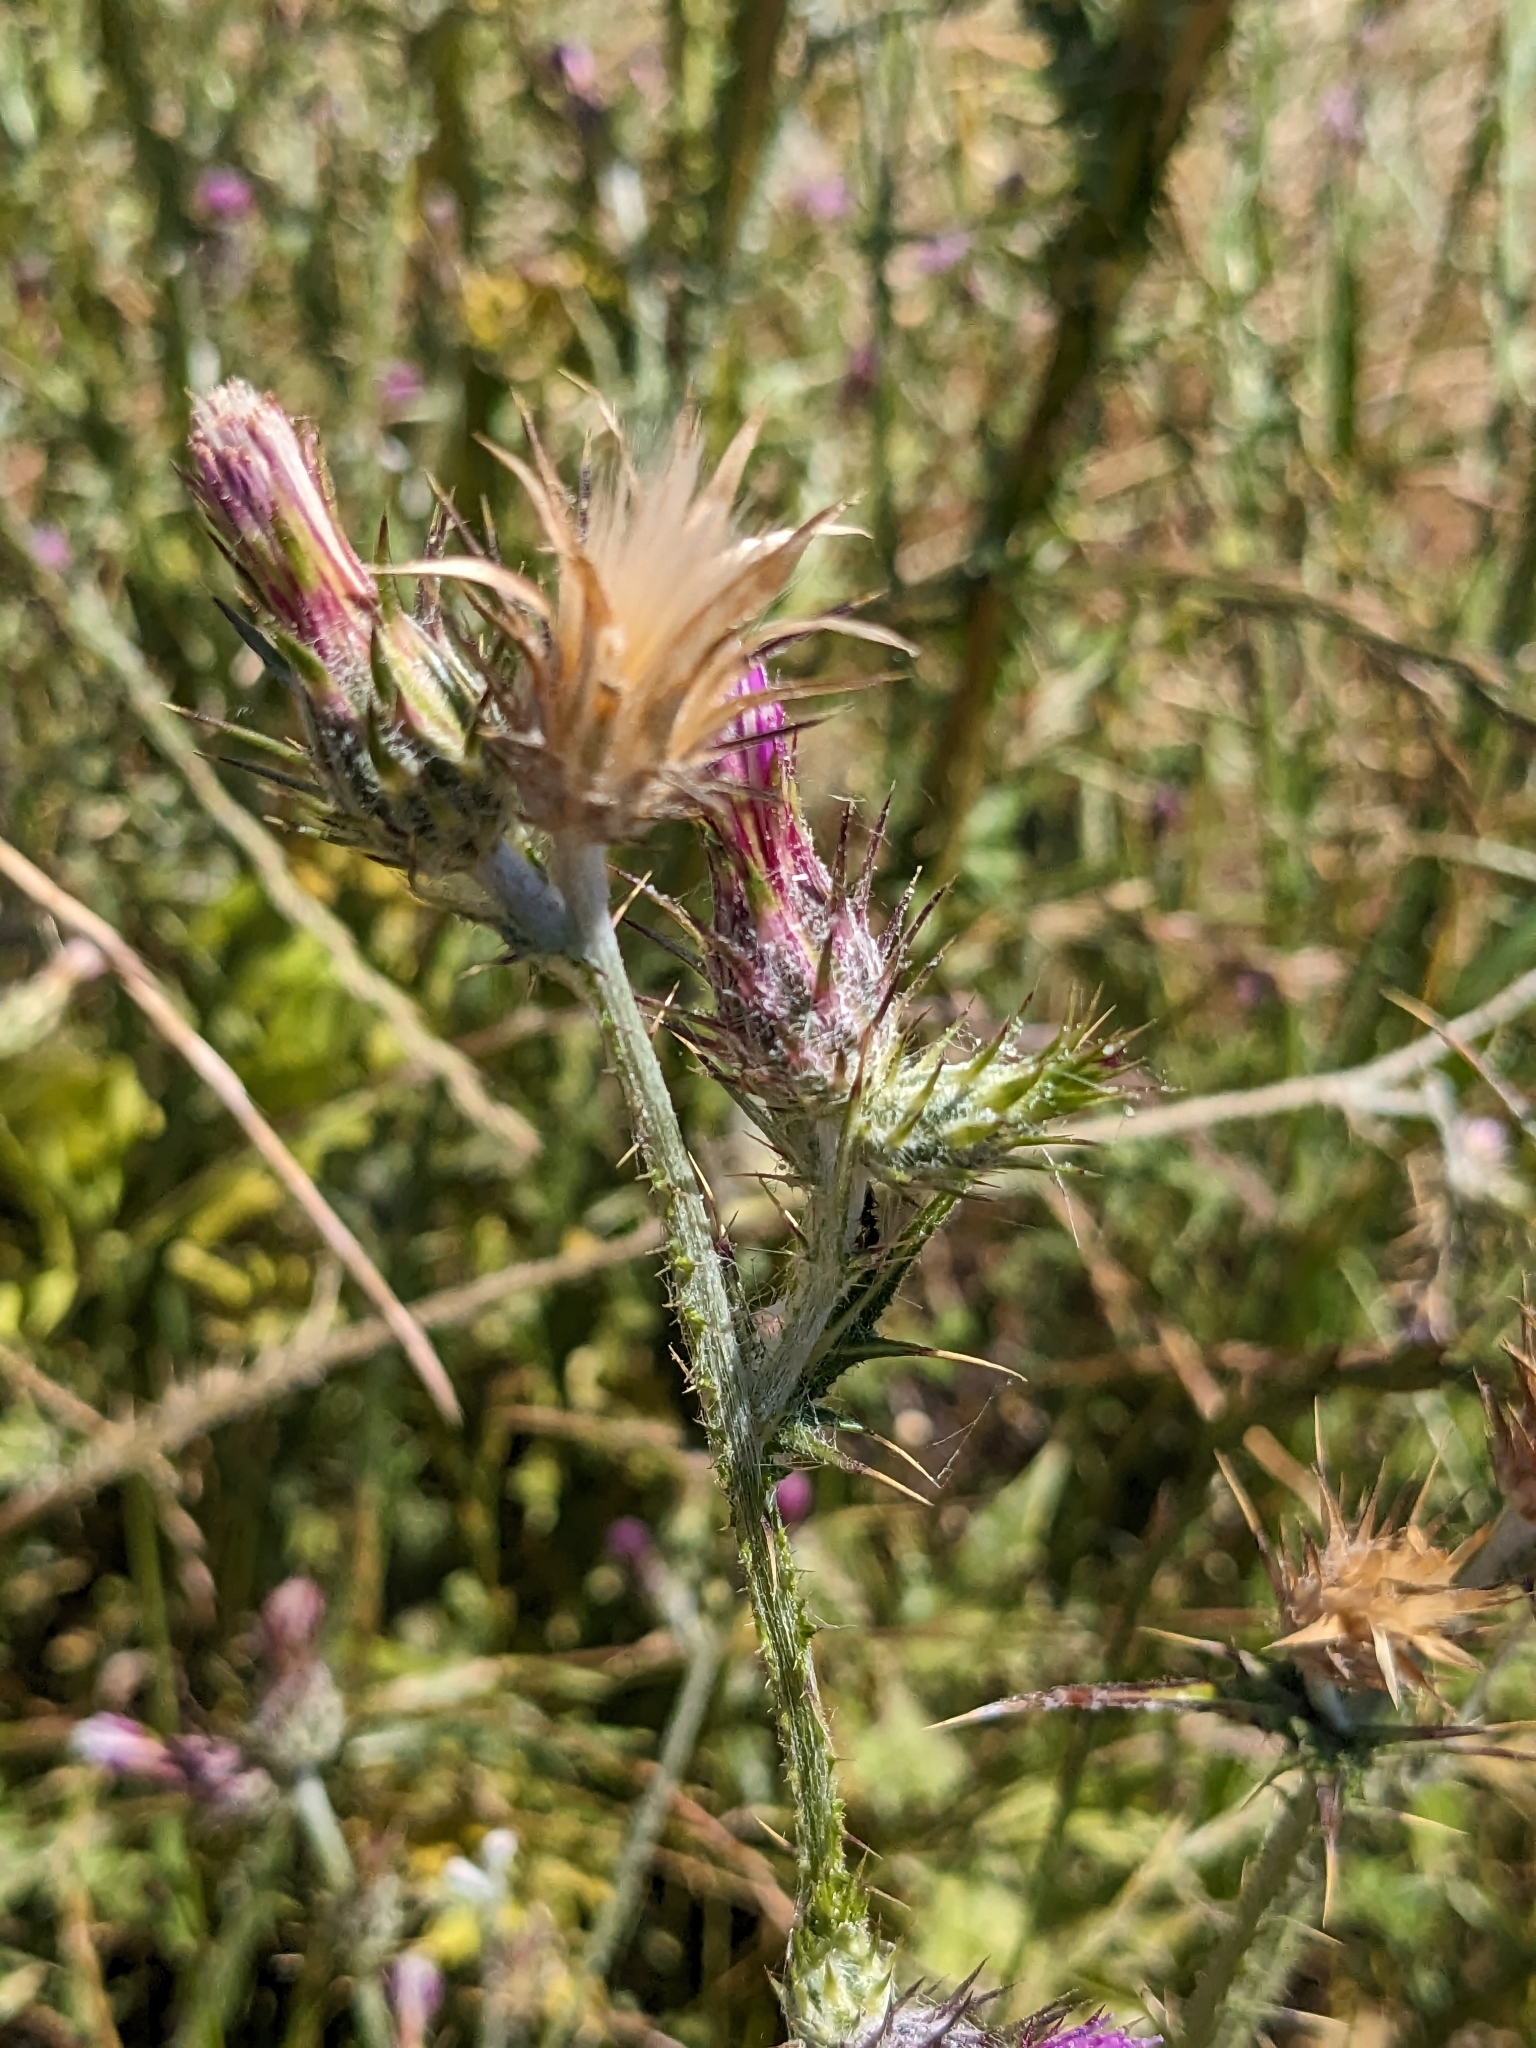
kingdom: Plantae
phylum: Tracheophyta
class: Magnoliopsida
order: Asterales
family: Asteraceae
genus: Carduus
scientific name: Carduus pycnocephalus
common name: Plymouth thistle
